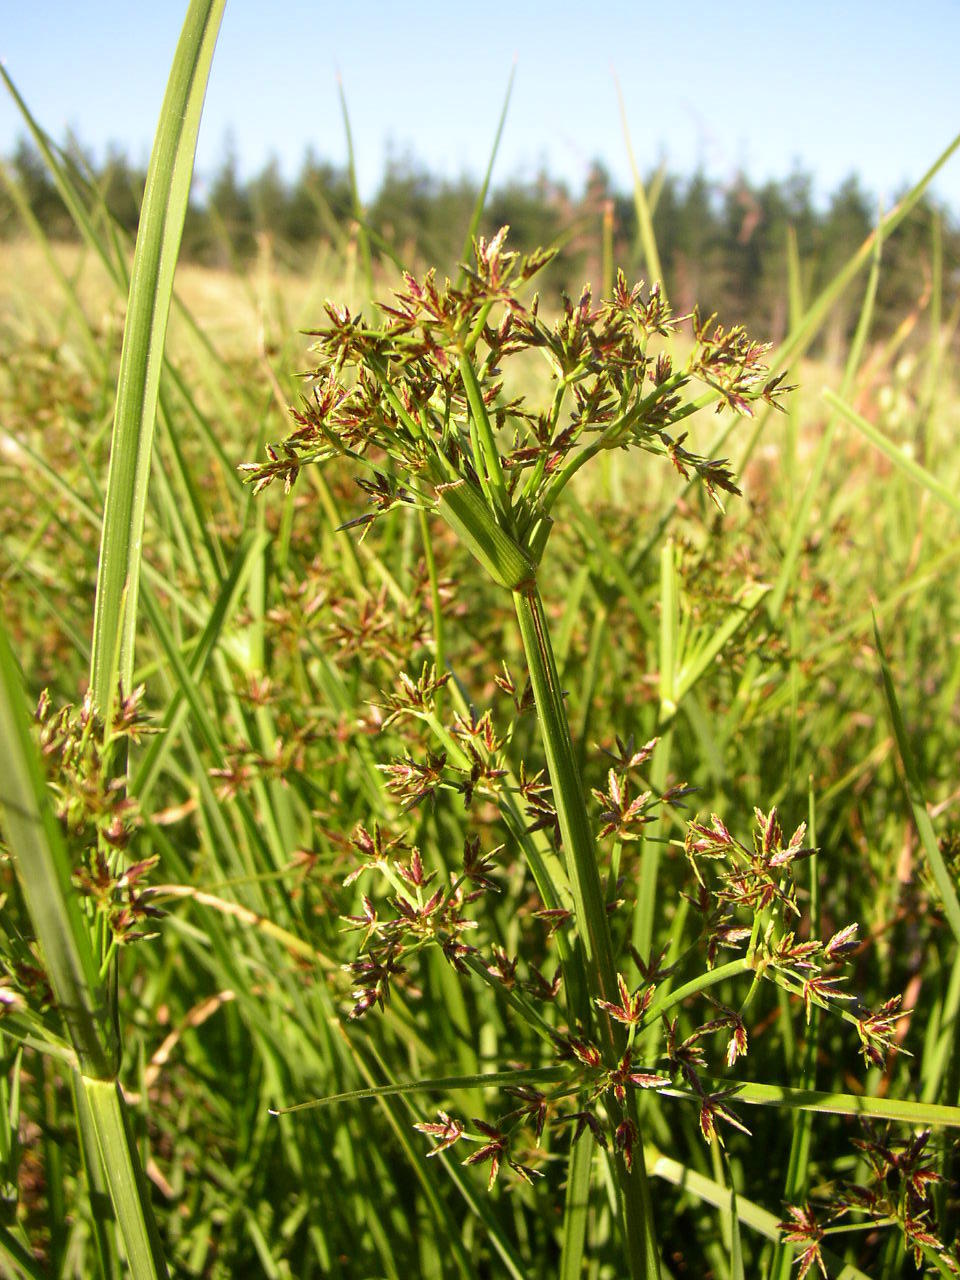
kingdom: Plantae
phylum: Tracheophyta
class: Liliopsida
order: Poales
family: Cyperaceae
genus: Cyperus
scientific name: Cyperus denudatus
